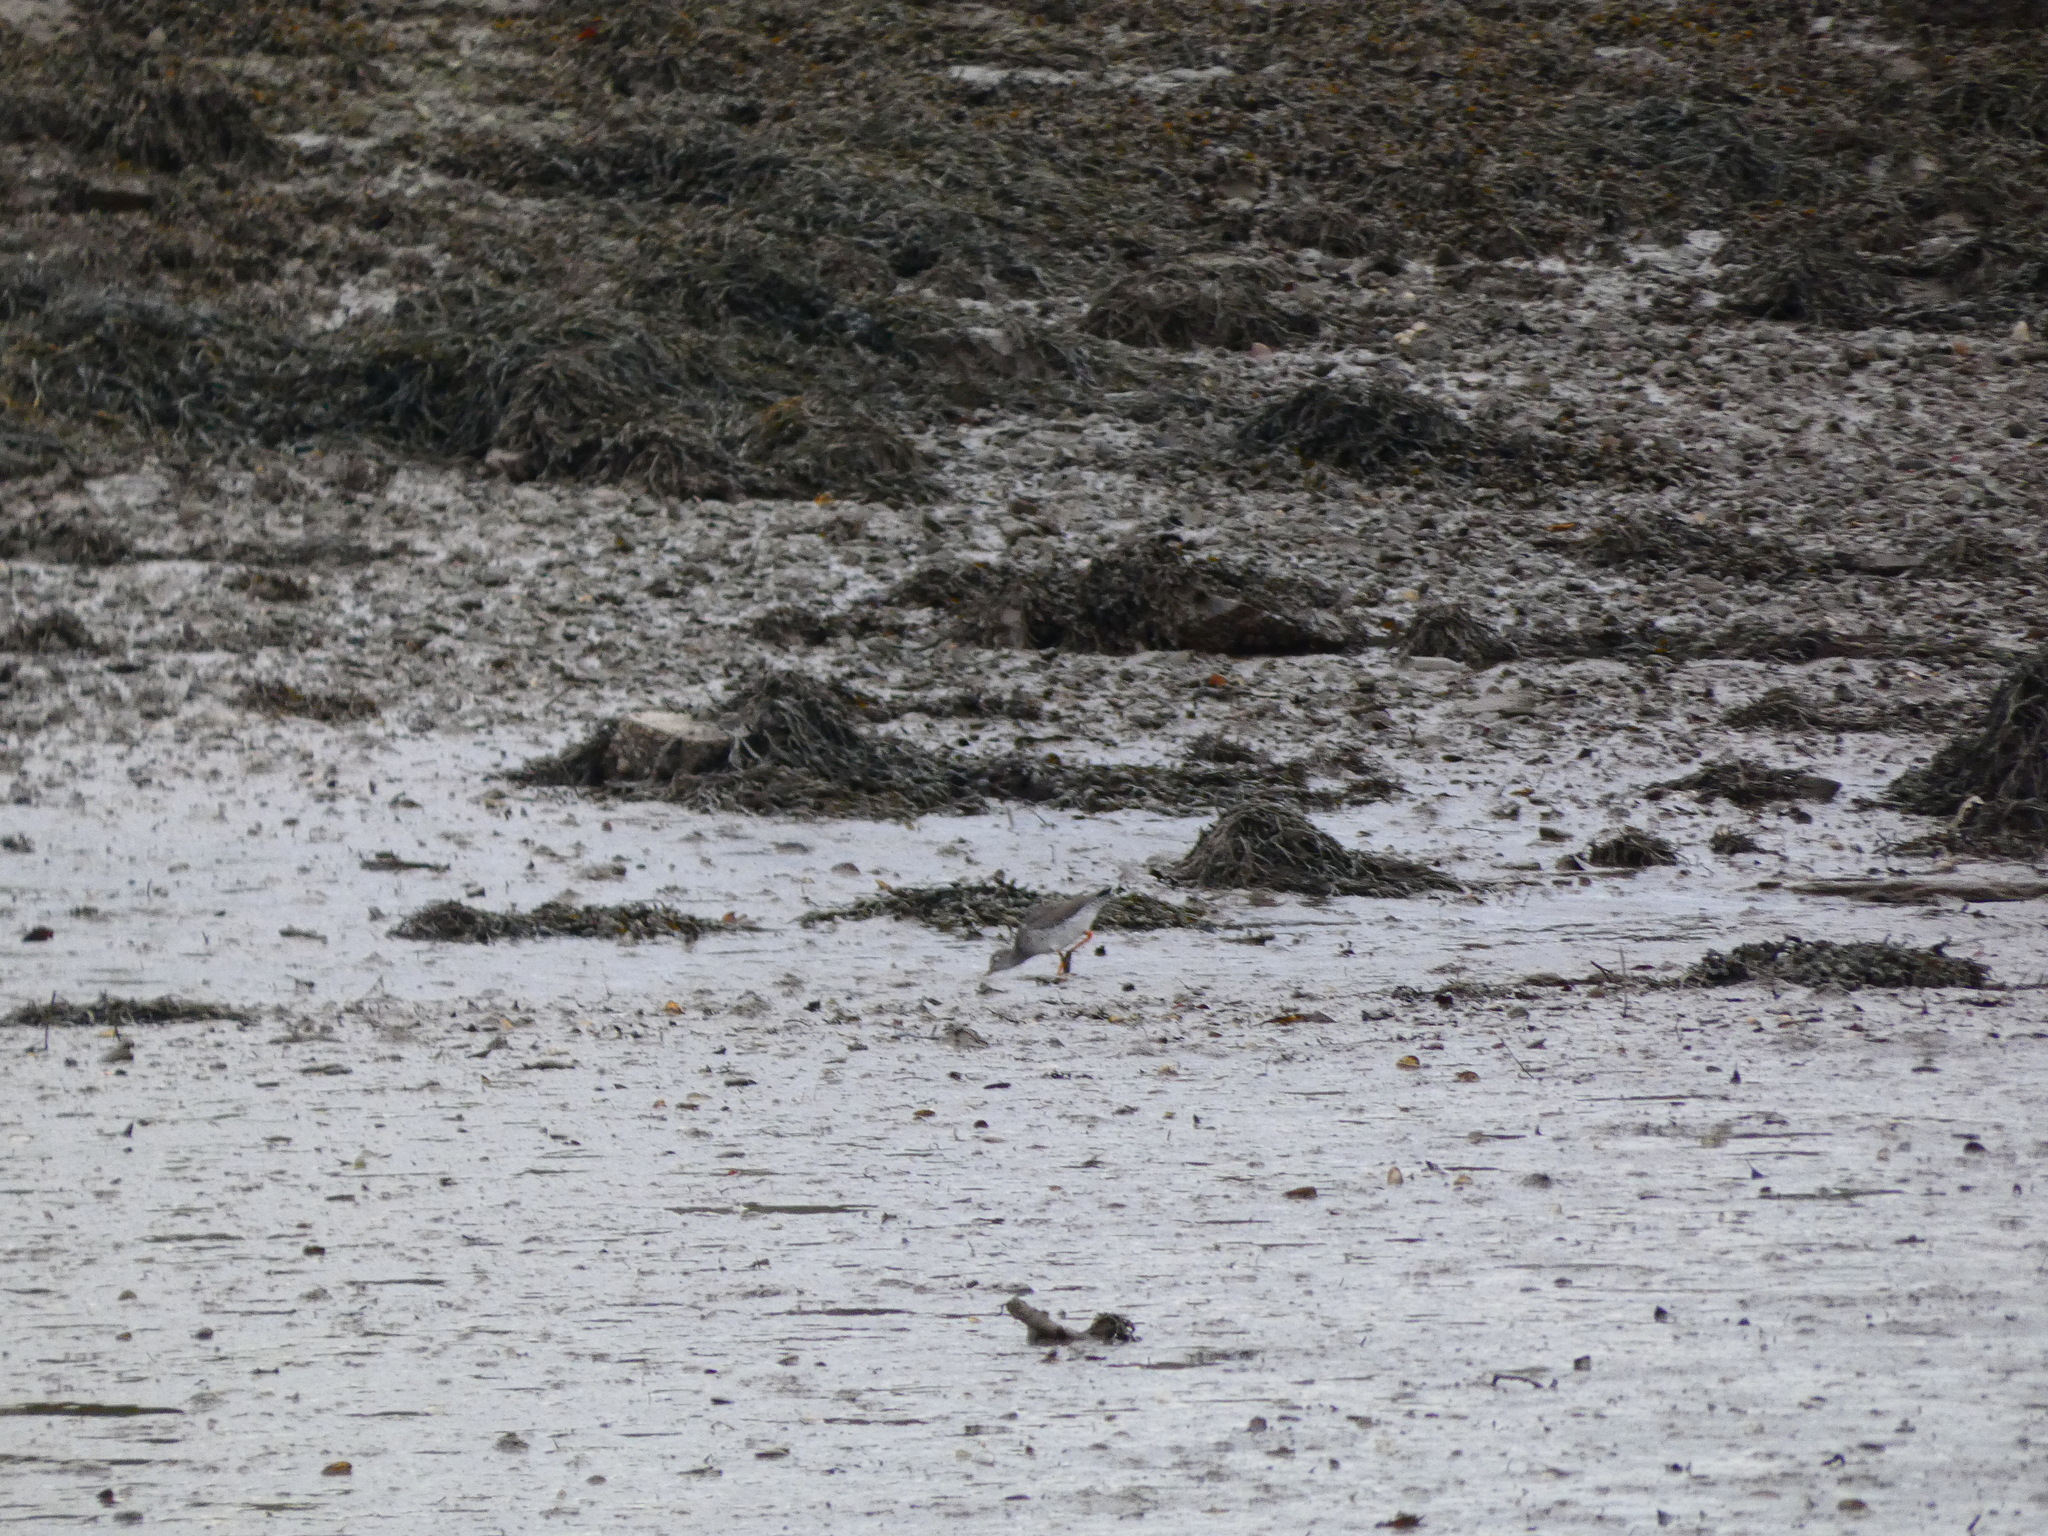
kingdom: Animalia
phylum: Chordata
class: Aves
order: Charadriiformes
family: Scolopacidae
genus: Tringa
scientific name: Tringa totanus
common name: Common redshank
